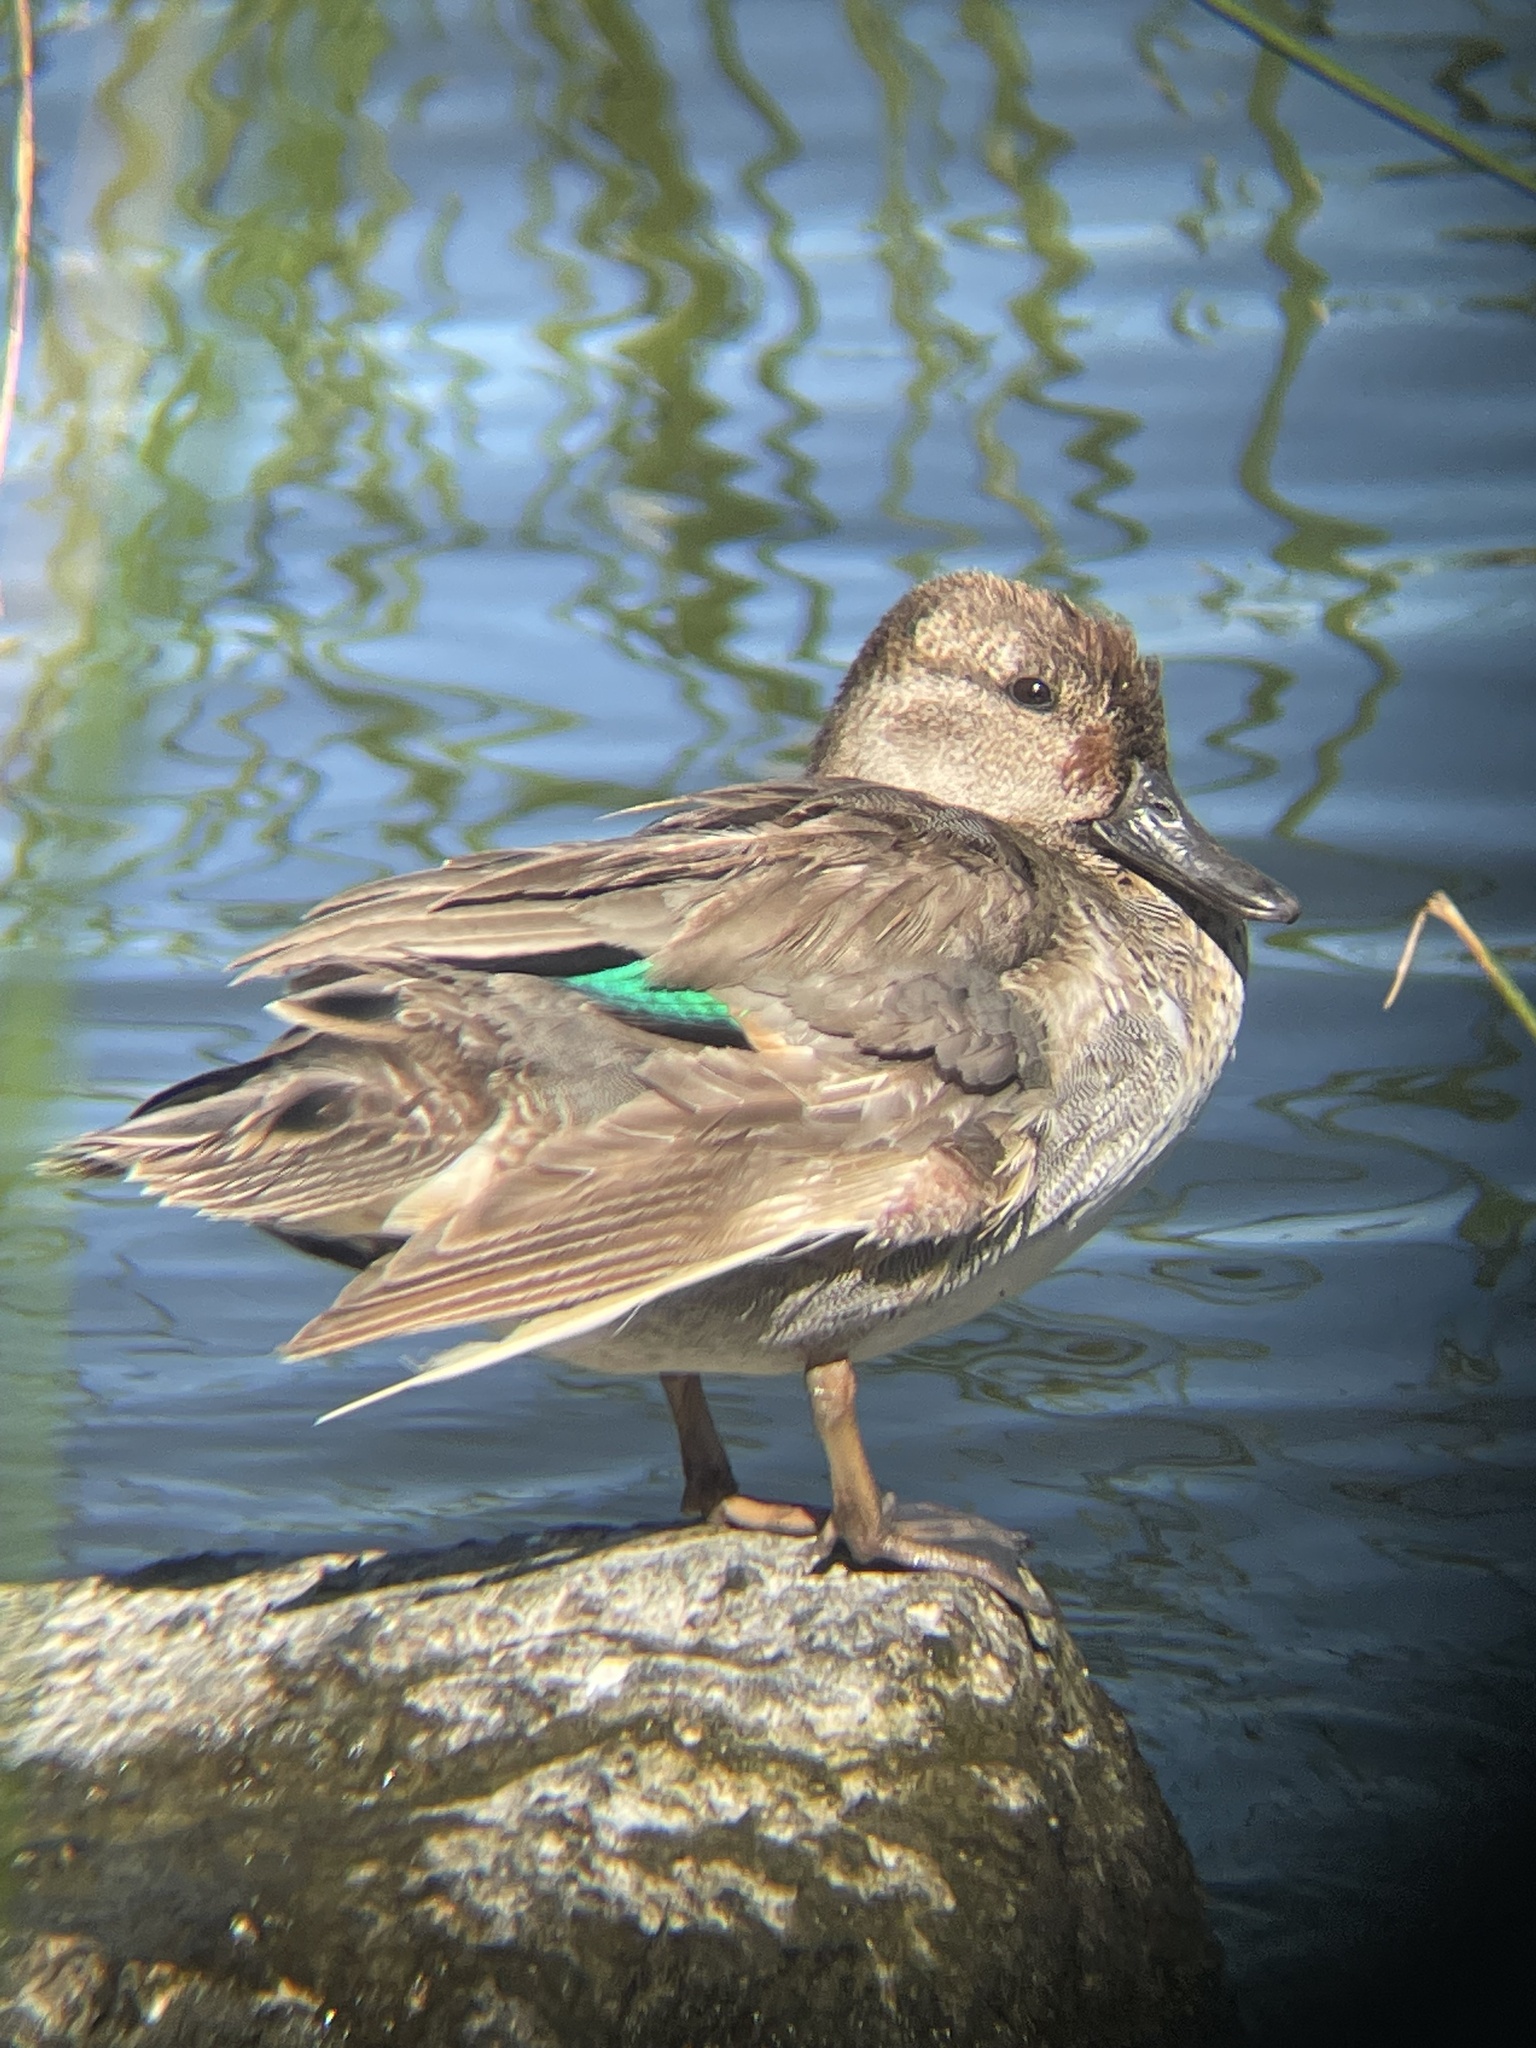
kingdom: Animalia
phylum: Chordata
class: Aves
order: Anseriformes
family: Anatidae
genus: Anas
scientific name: Anas crecca
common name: Eurasian teal
